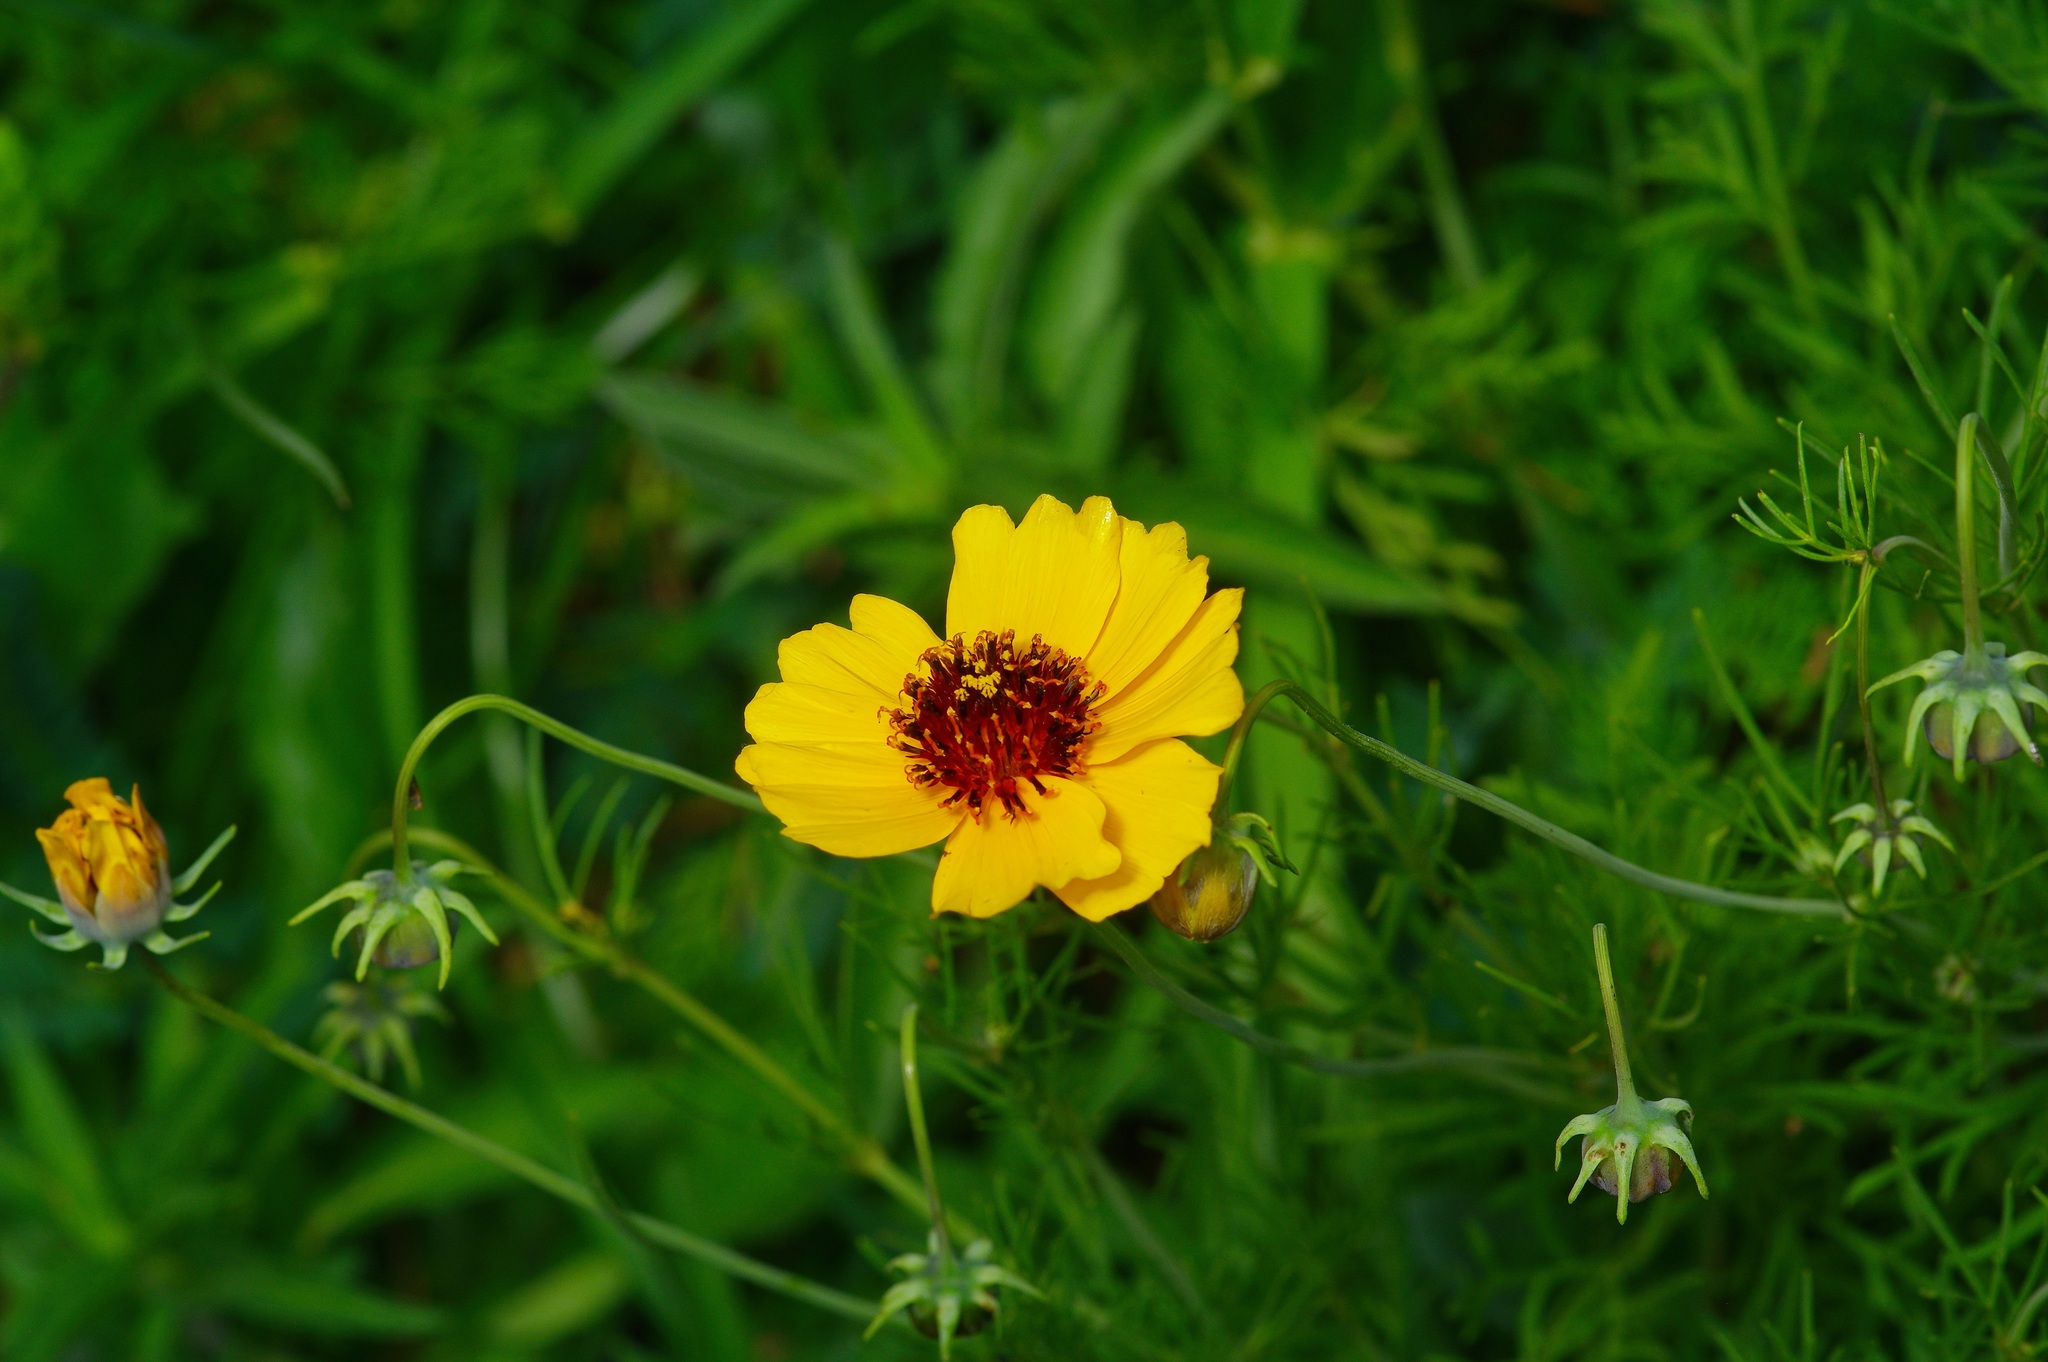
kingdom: Plantae
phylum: Tracheophyta
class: Magnoliopsida
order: Asterales
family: Asteraceae
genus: Thelesperma
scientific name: Thelesperma filifolium
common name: Stiff greenthread
